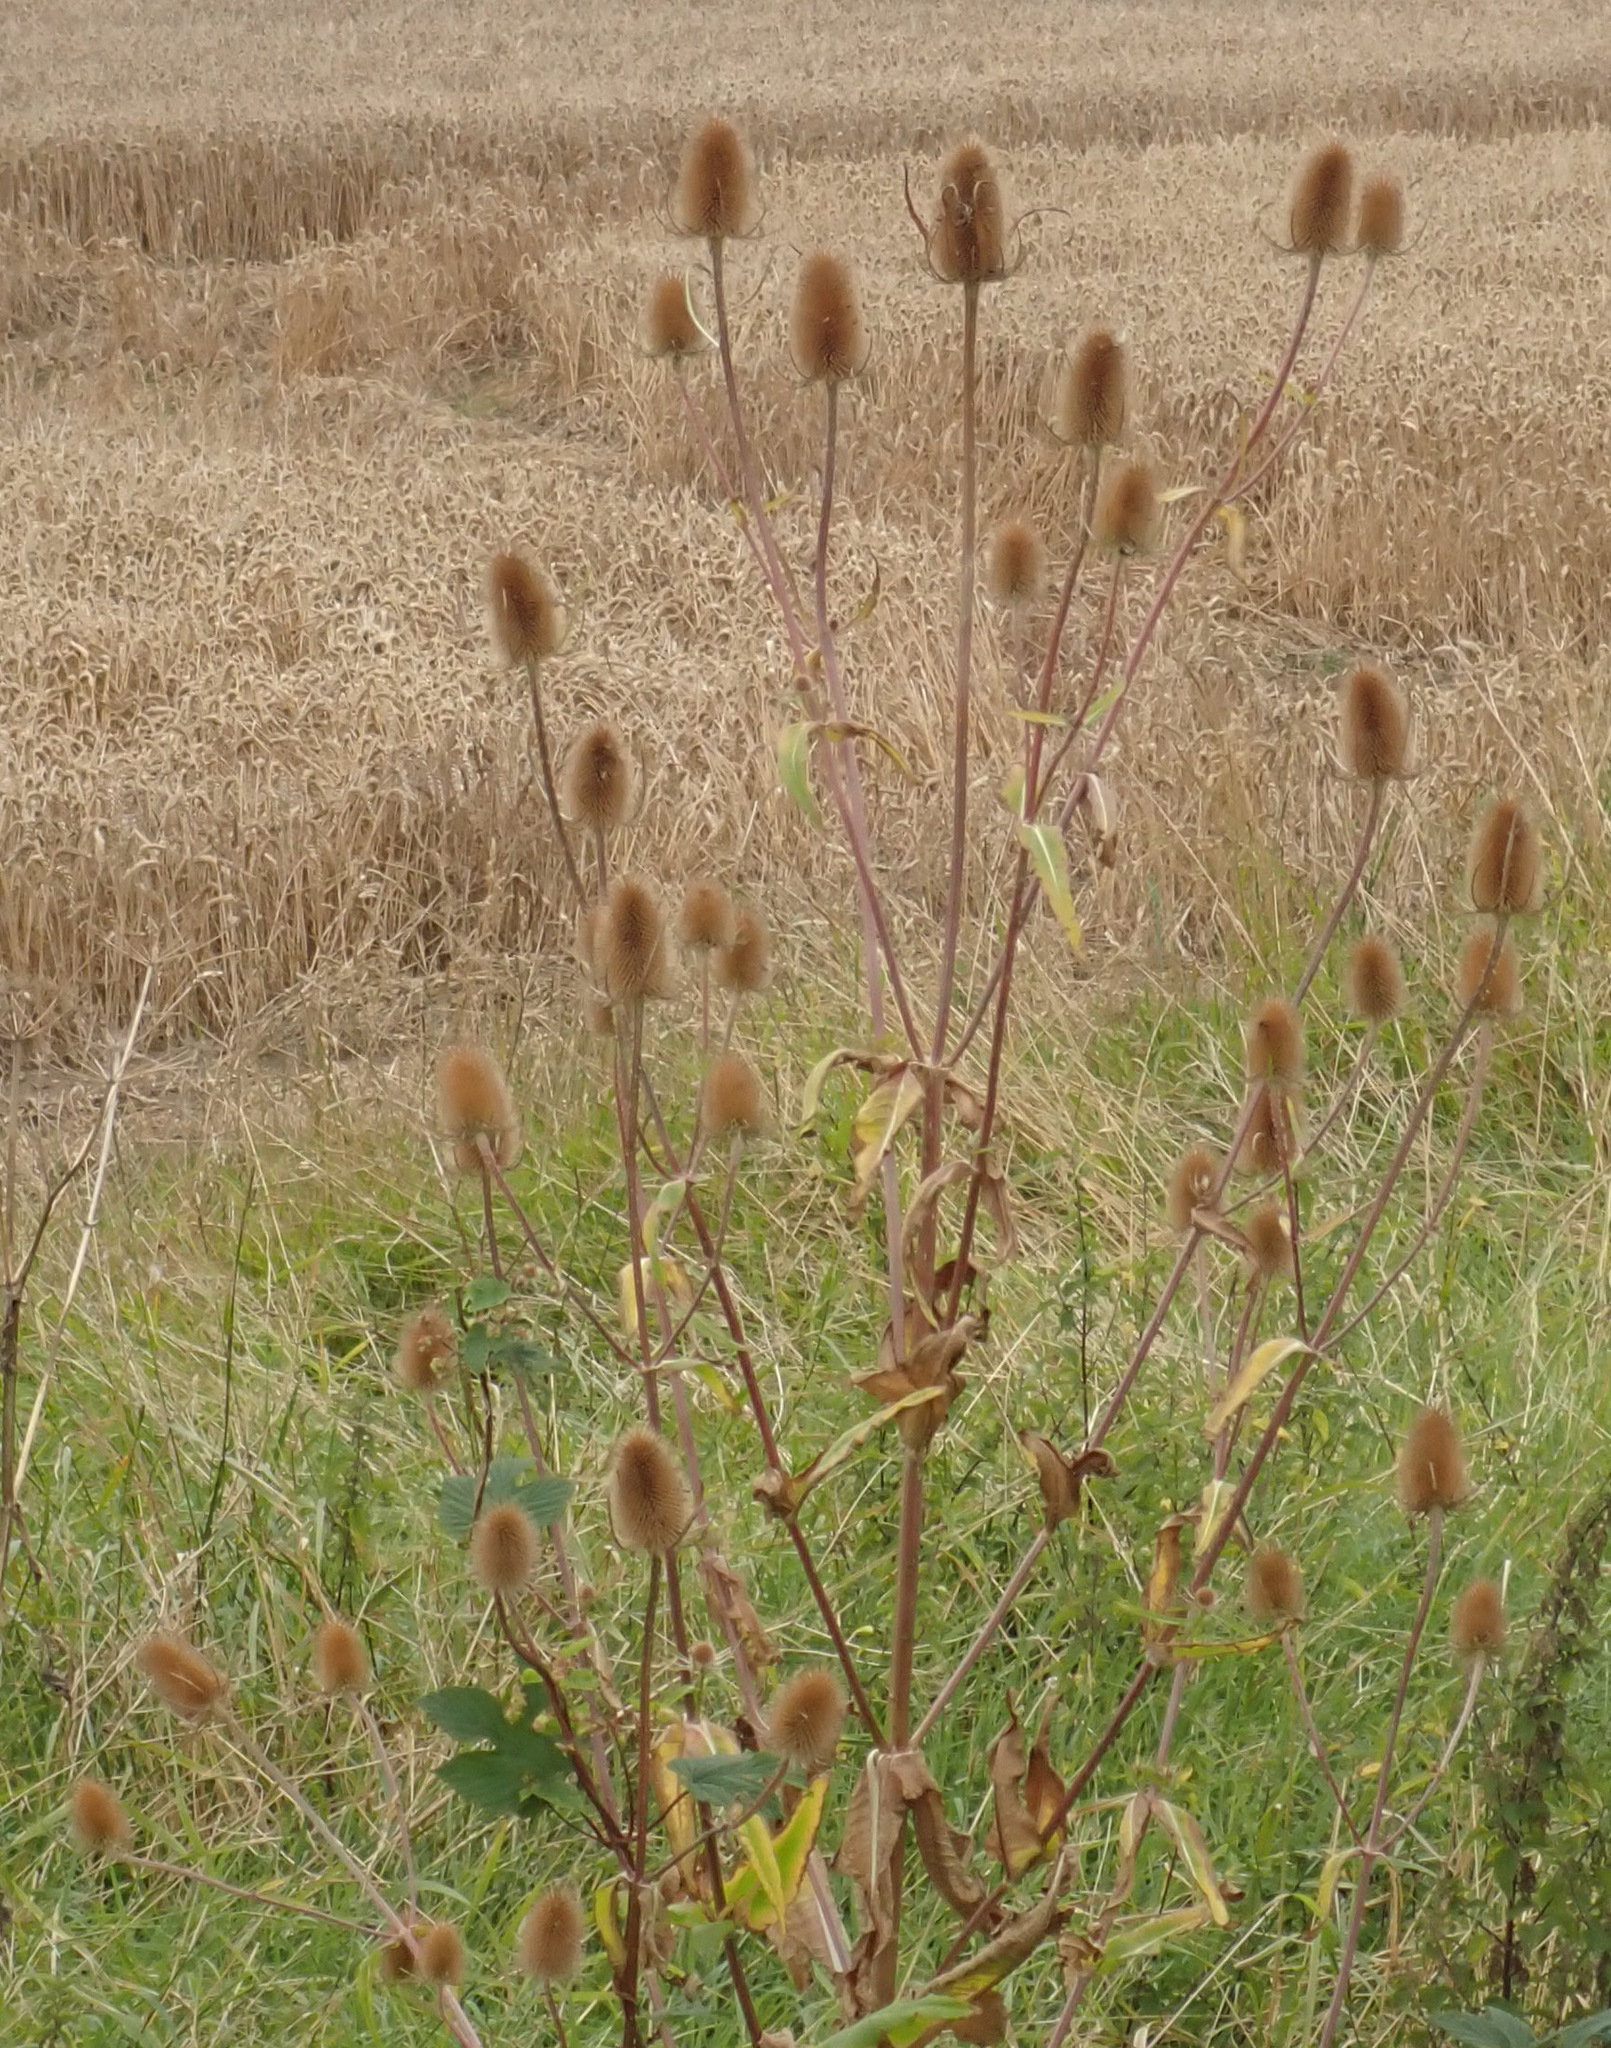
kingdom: Plantae
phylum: Tracheophyta
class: Magnoliopsida
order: Dipsacales
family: Caprifoliaceae
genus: Dipsacus
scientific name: Dipsacus fullonum
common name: Teasel
